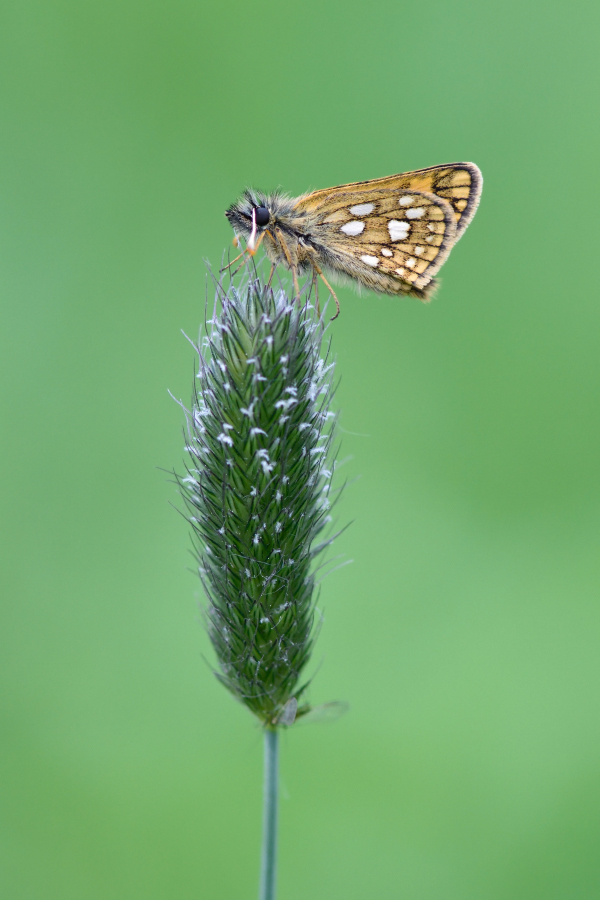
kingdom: Animalia
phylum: Arthropoda
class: Insecta
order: Lepidoptera
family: Hesperiidae
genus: Carterocephalus
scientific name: Carterocephalus palaemon
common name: Chequered skipper
